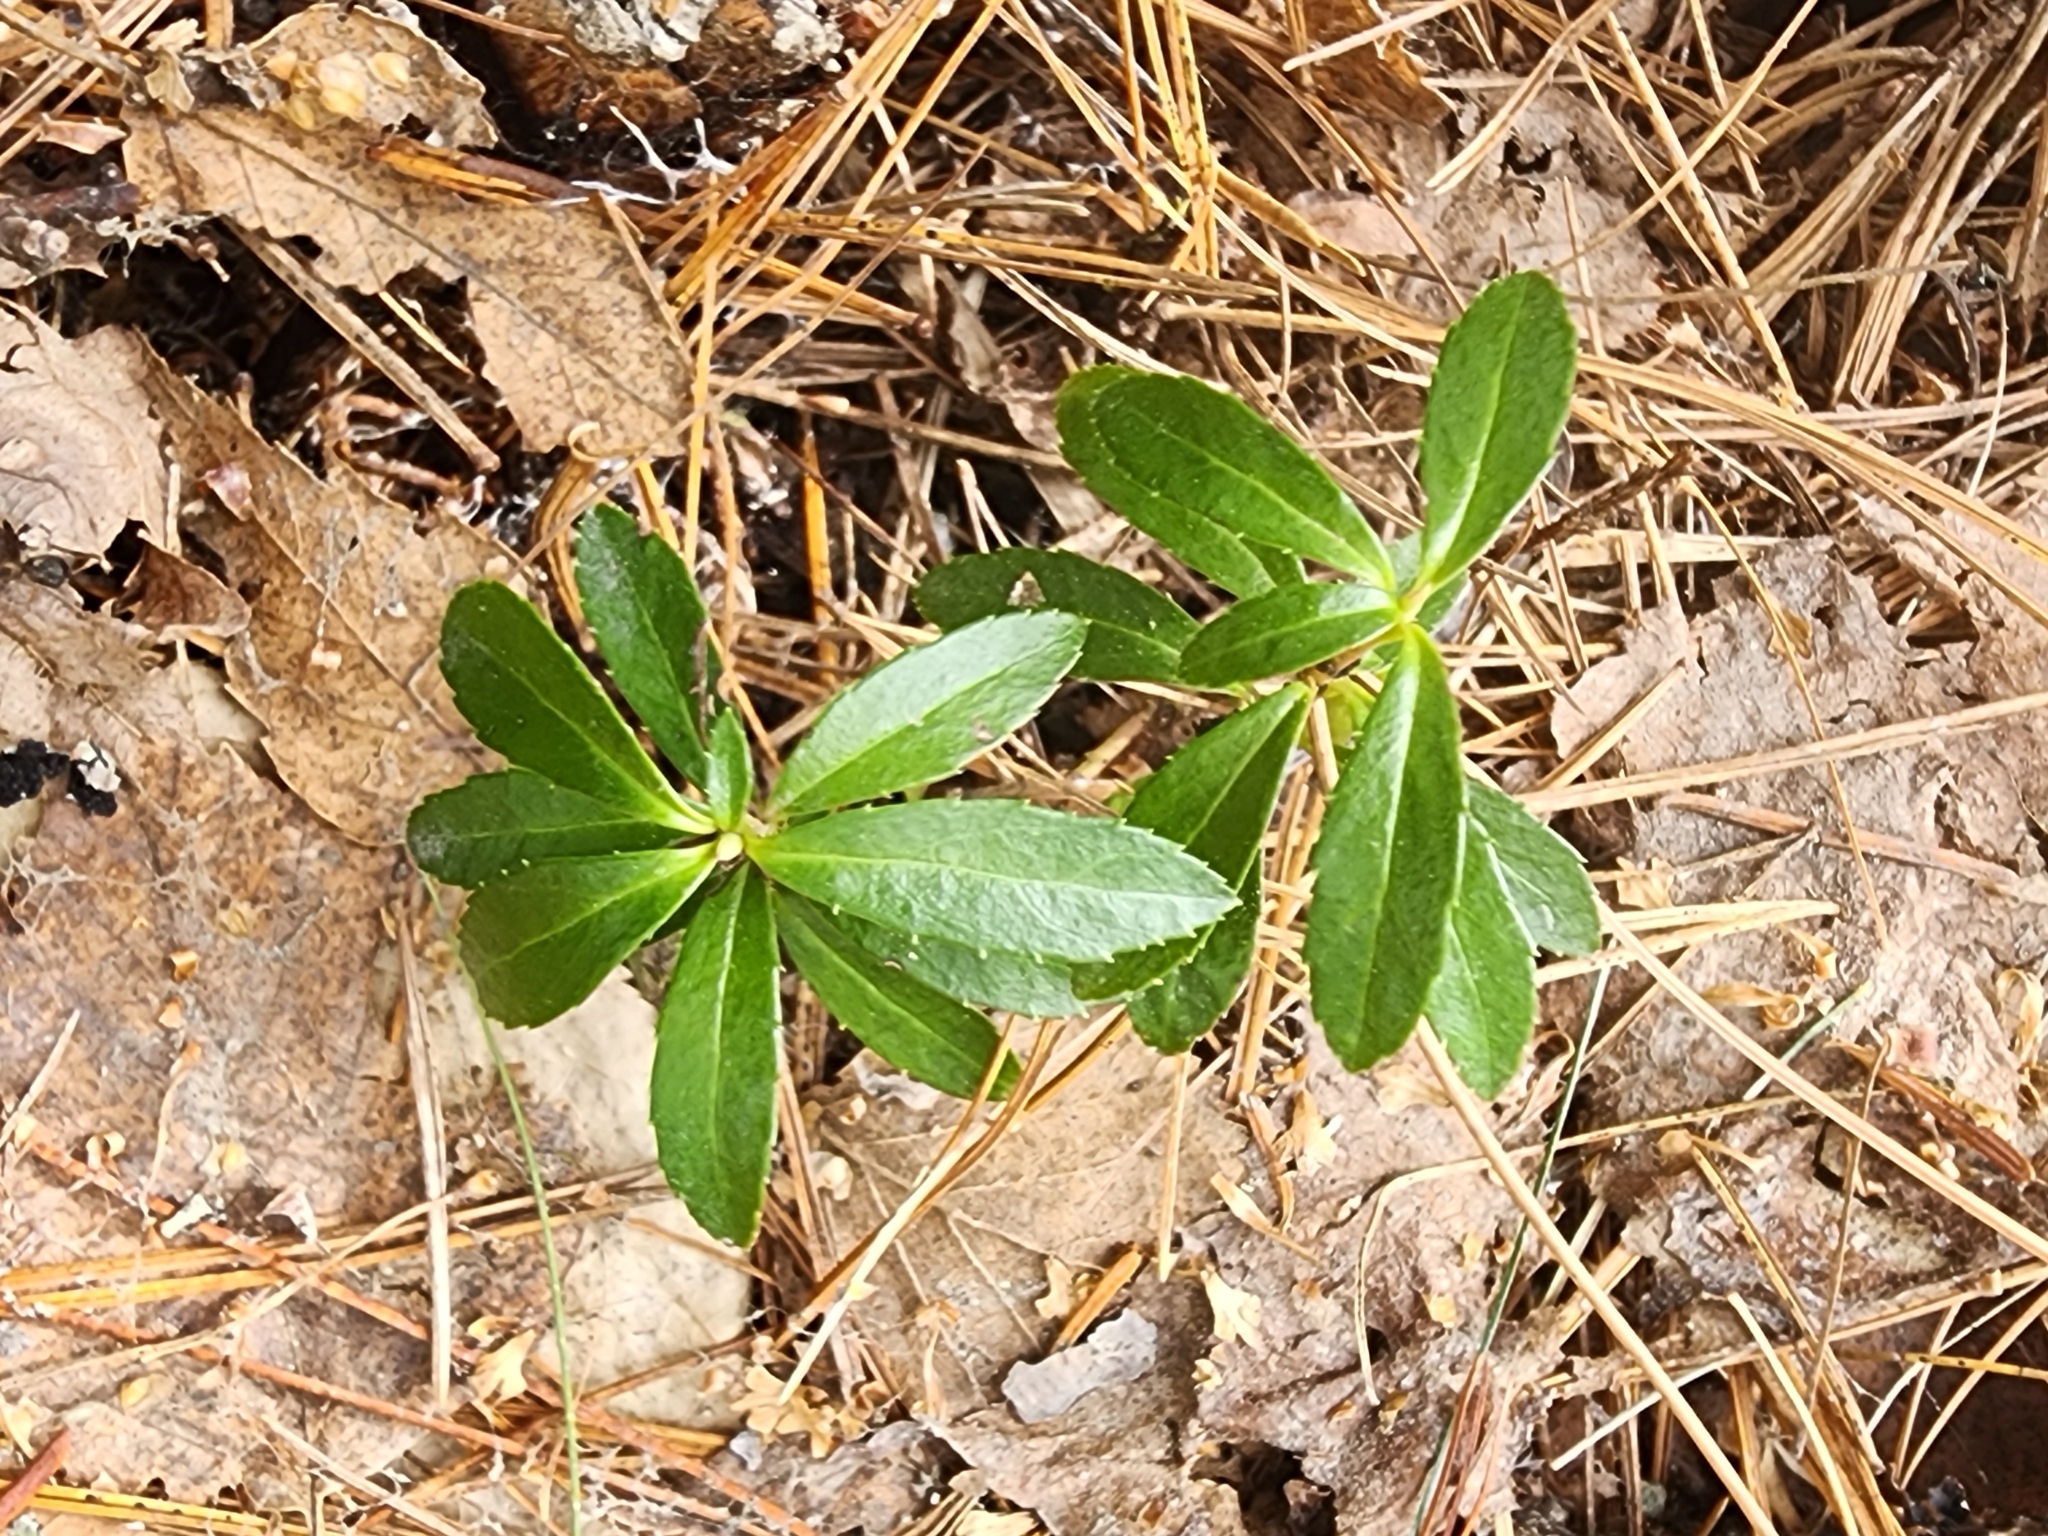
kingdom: Plantae
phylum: Tracheophyta
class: Magnoliopsida
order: Ericales
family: Ericaceae
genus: Chimaphila
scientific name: Chimaphila umbellata
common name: Pipsissewa
